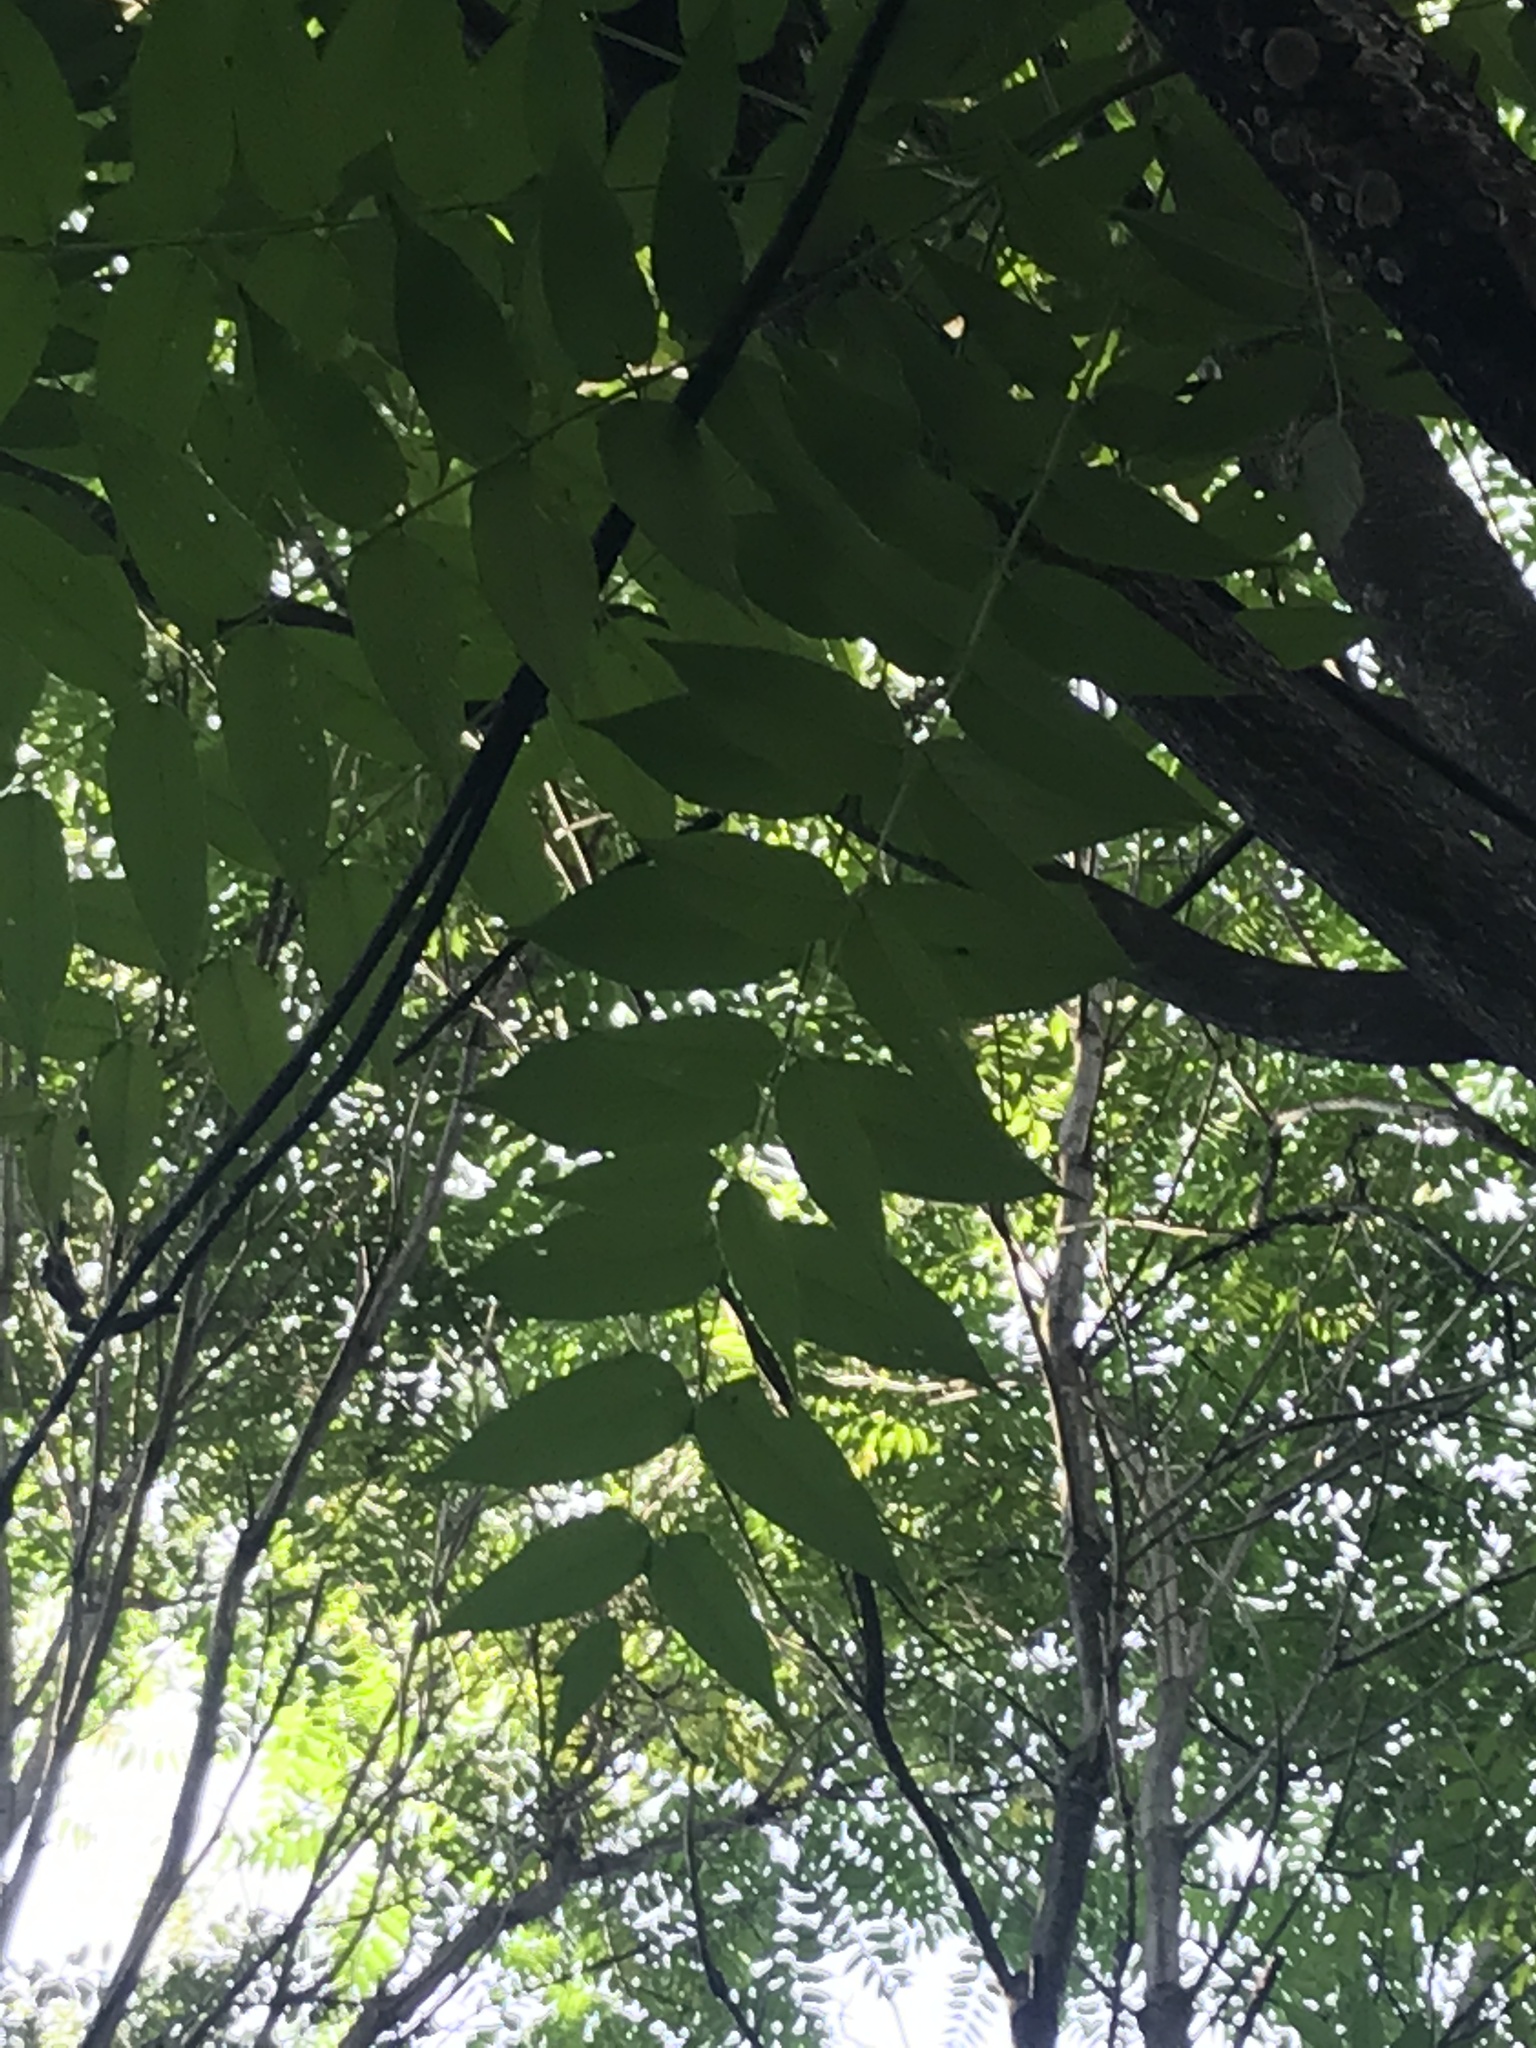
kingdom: Plantae
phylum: Tracheophyta
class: Magnoliopsida
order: Sapindales
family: Simaroubaceae
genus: Ailanthus
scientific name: Ailanthus altissima
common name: Tree-of-heaven
